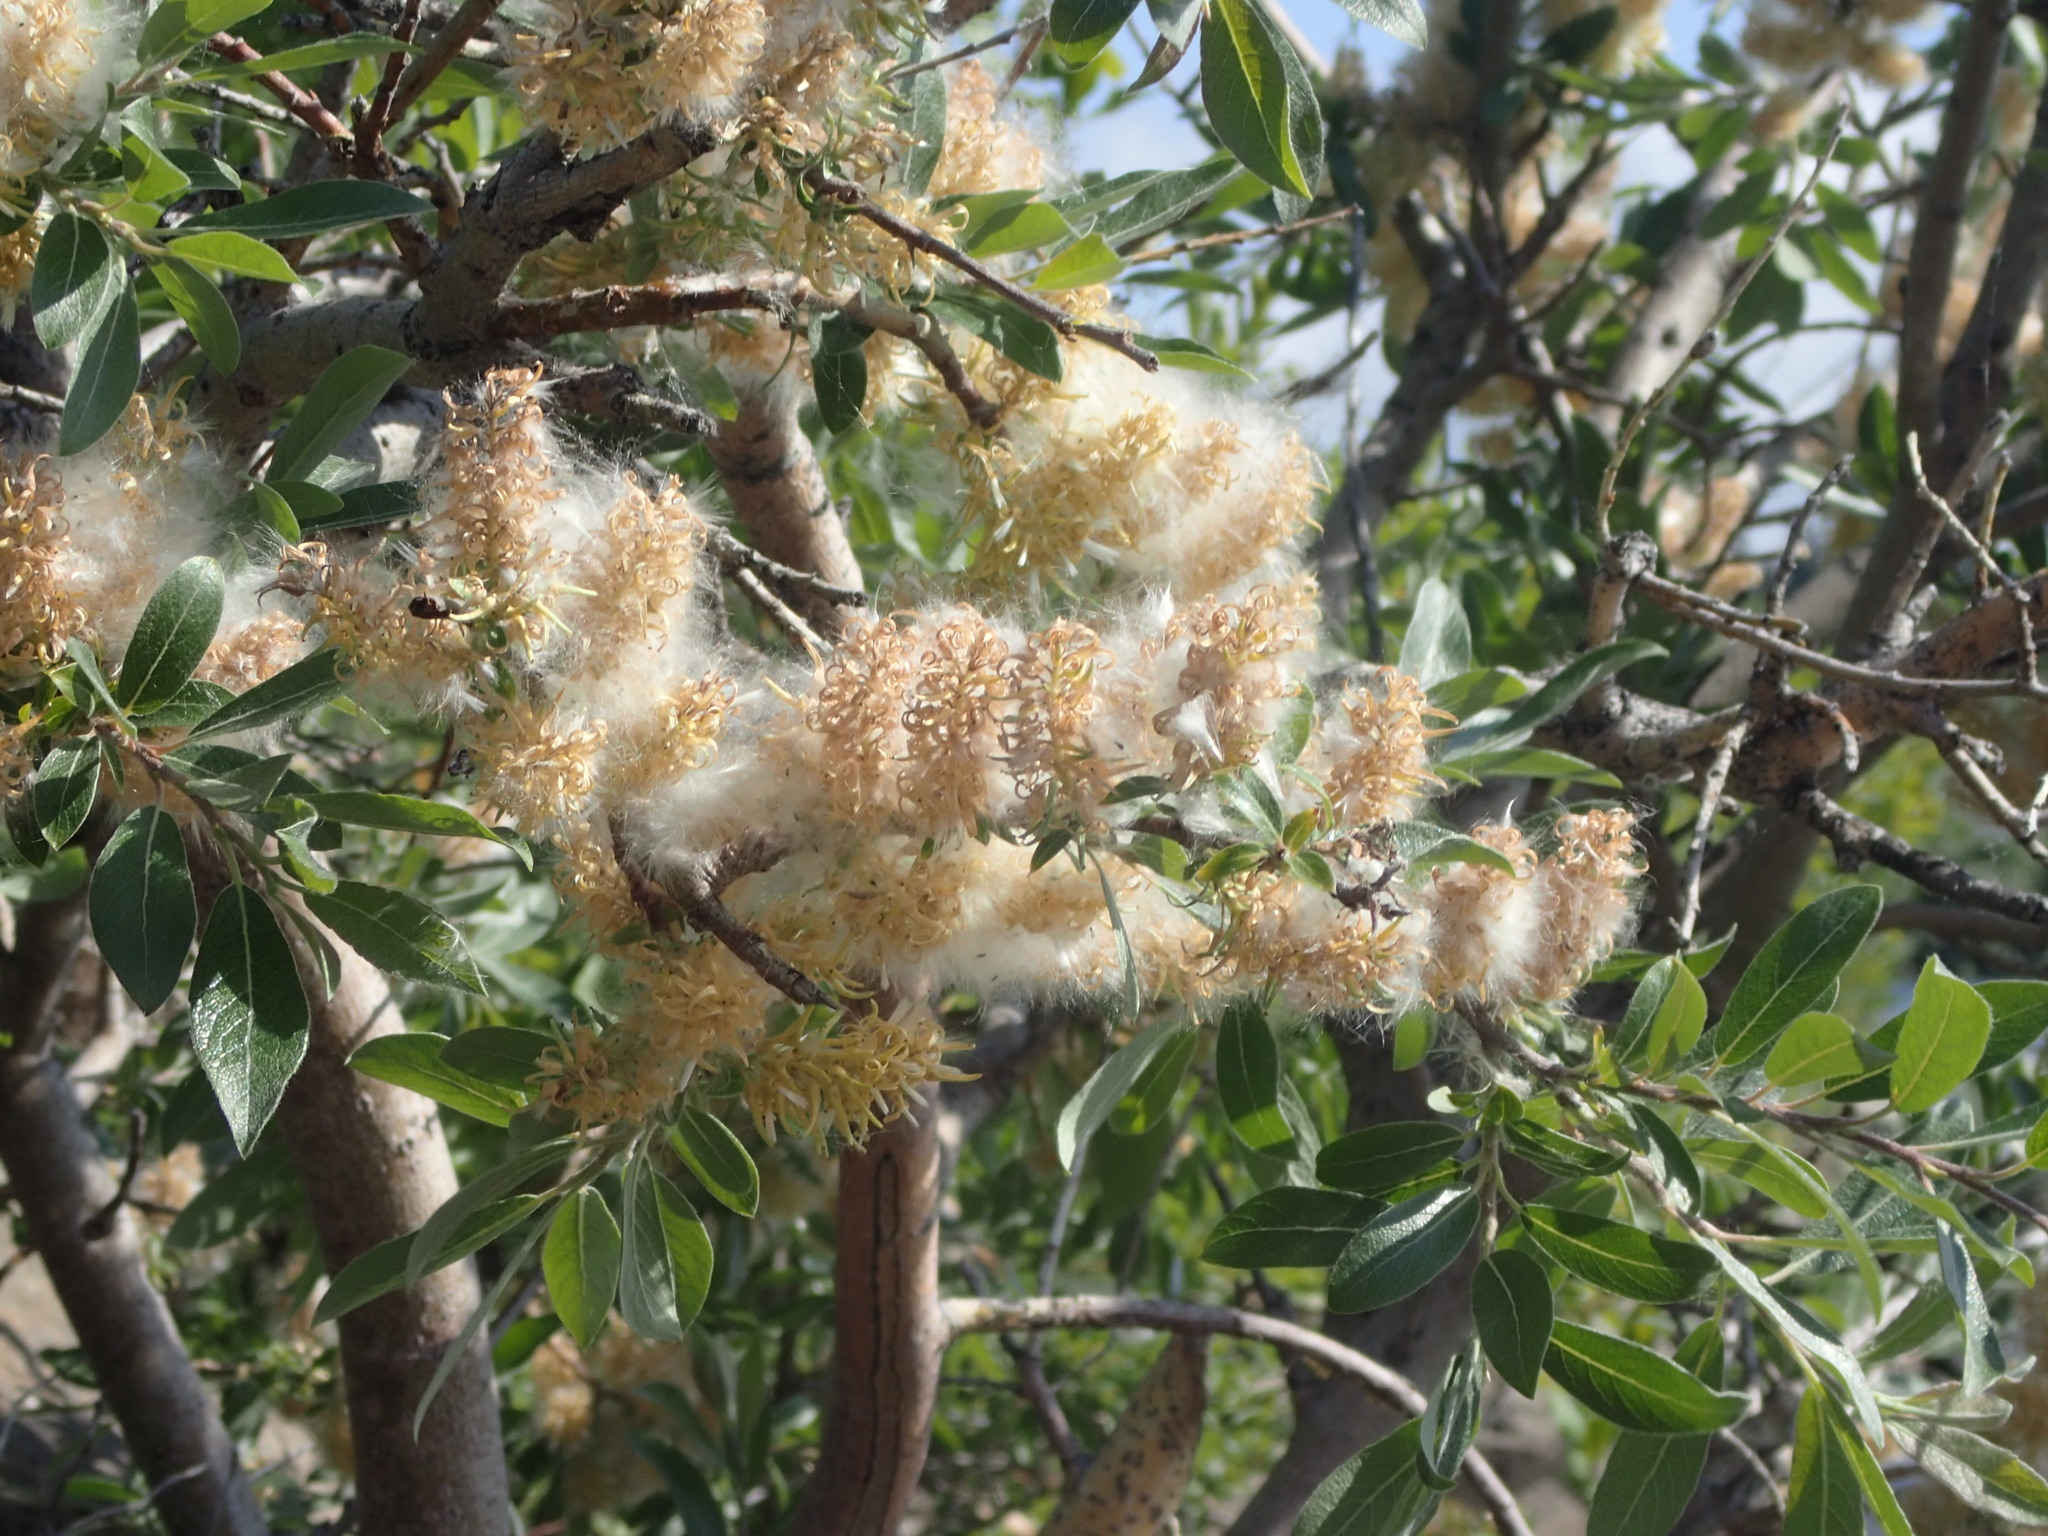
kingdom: Plantae
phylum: Tracheophyta
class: Magnoliopsida
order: Malpighiales
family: Salicaceae
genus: Salix
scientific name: Salix bebbiana
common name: Bebb's willow
